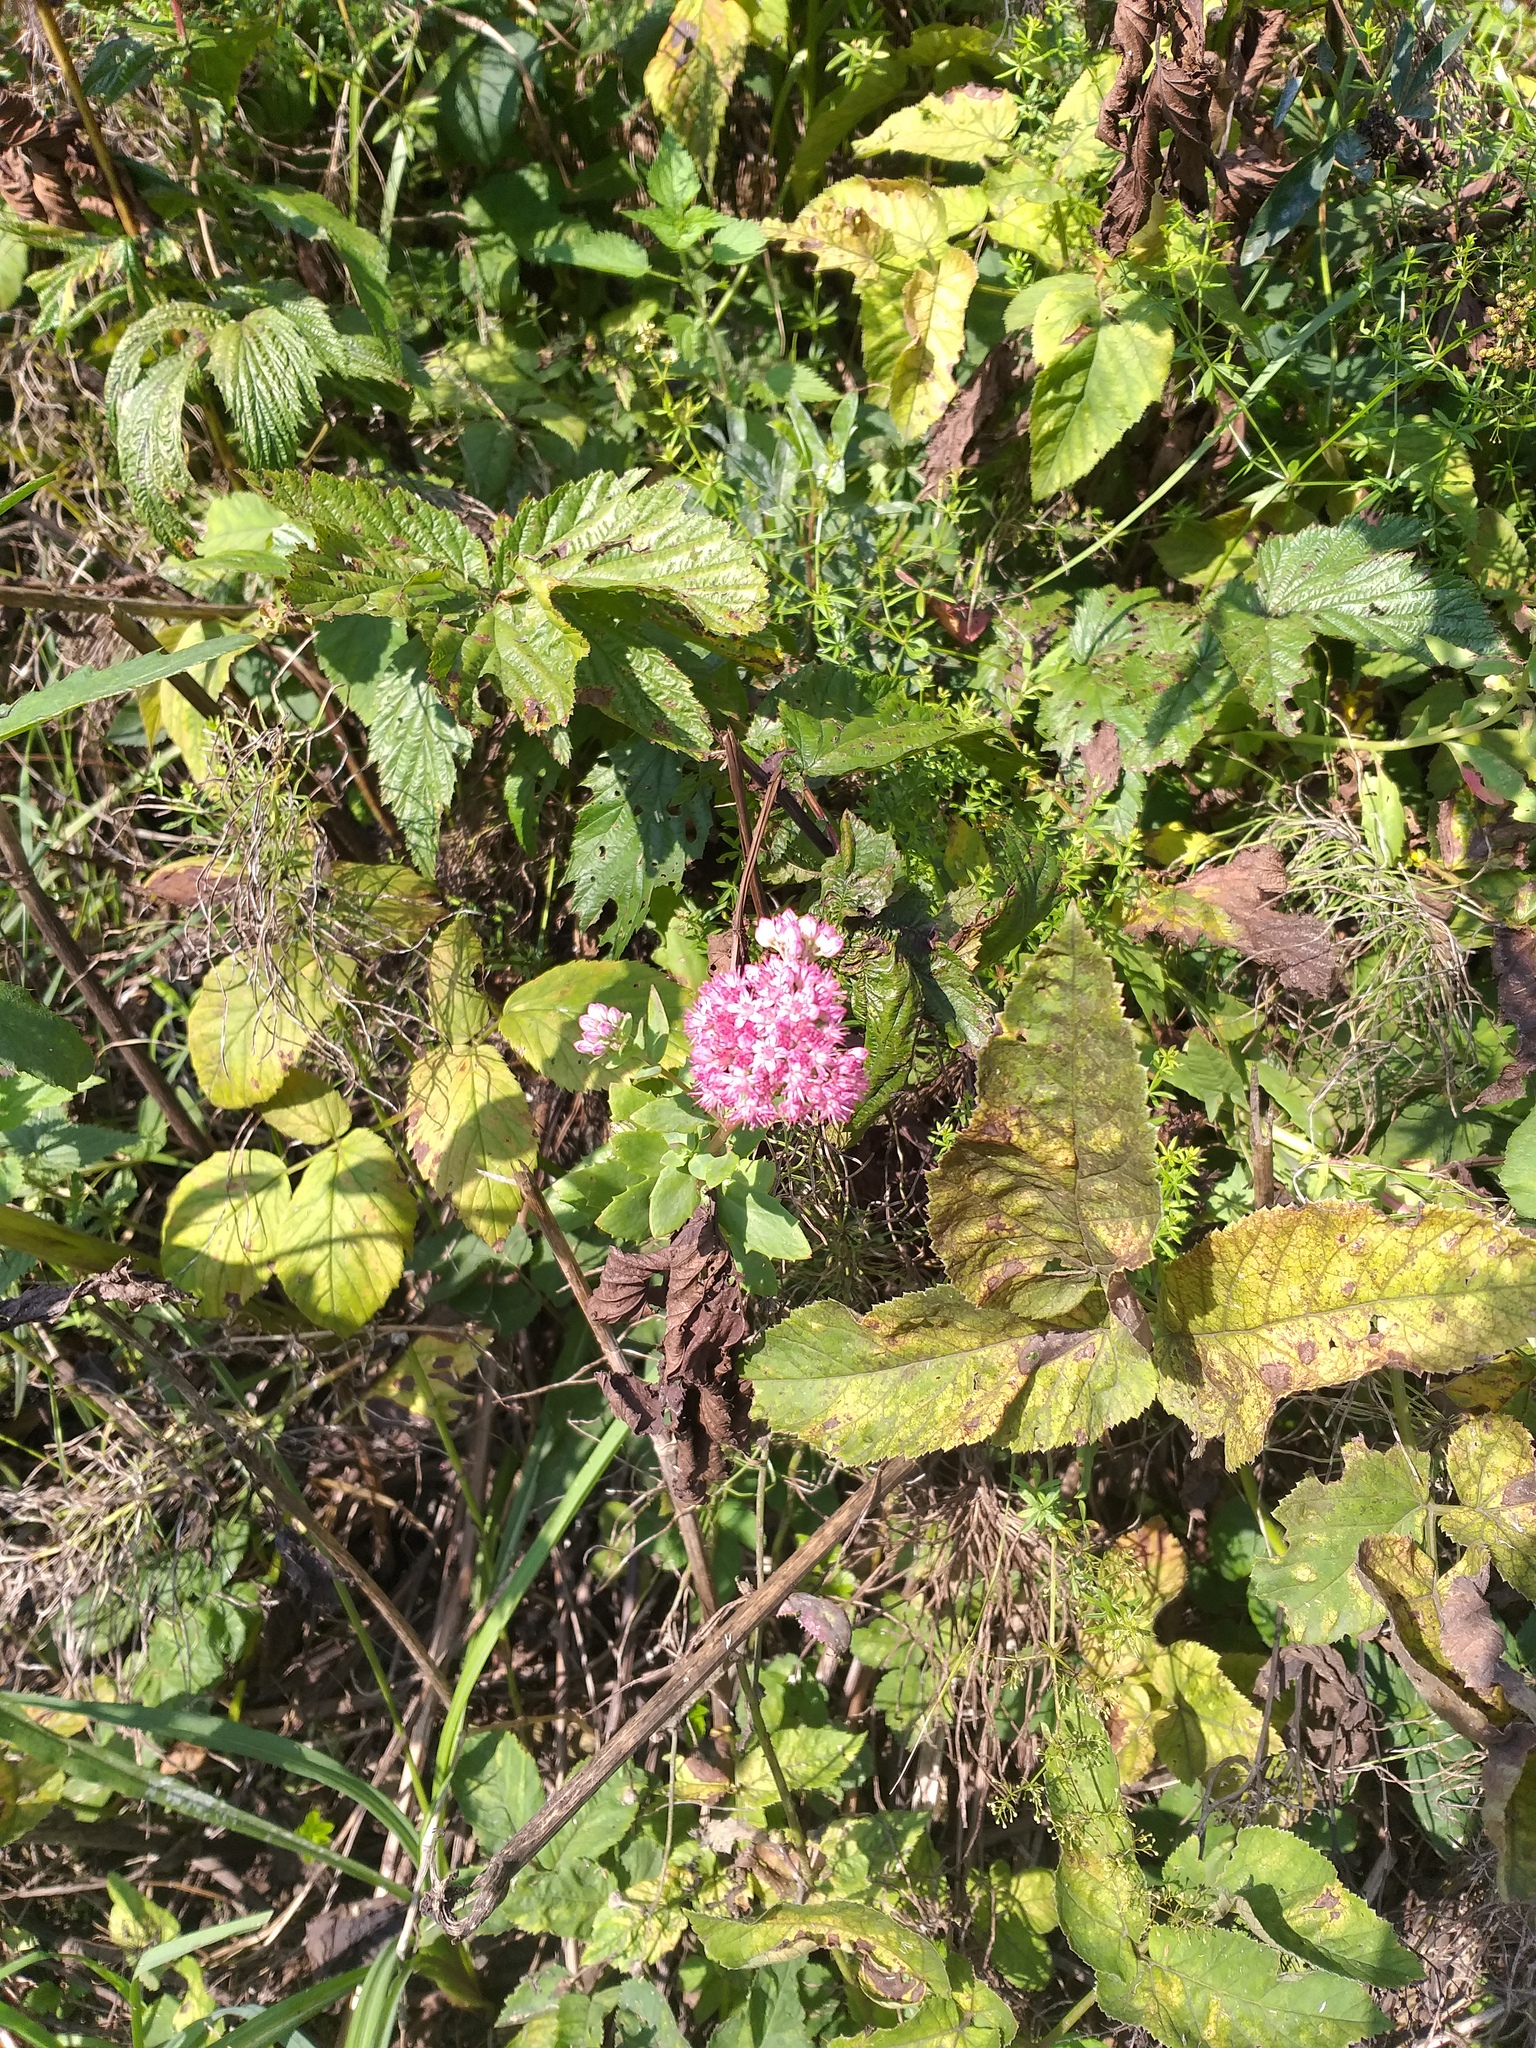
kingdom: Plantae
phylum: Tracheophyta
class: Magnoliopsida
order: Saxifragales
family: Crassulaceae
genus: Hylotelephium
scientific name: Hylotelephium telephium
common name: Live-forever
